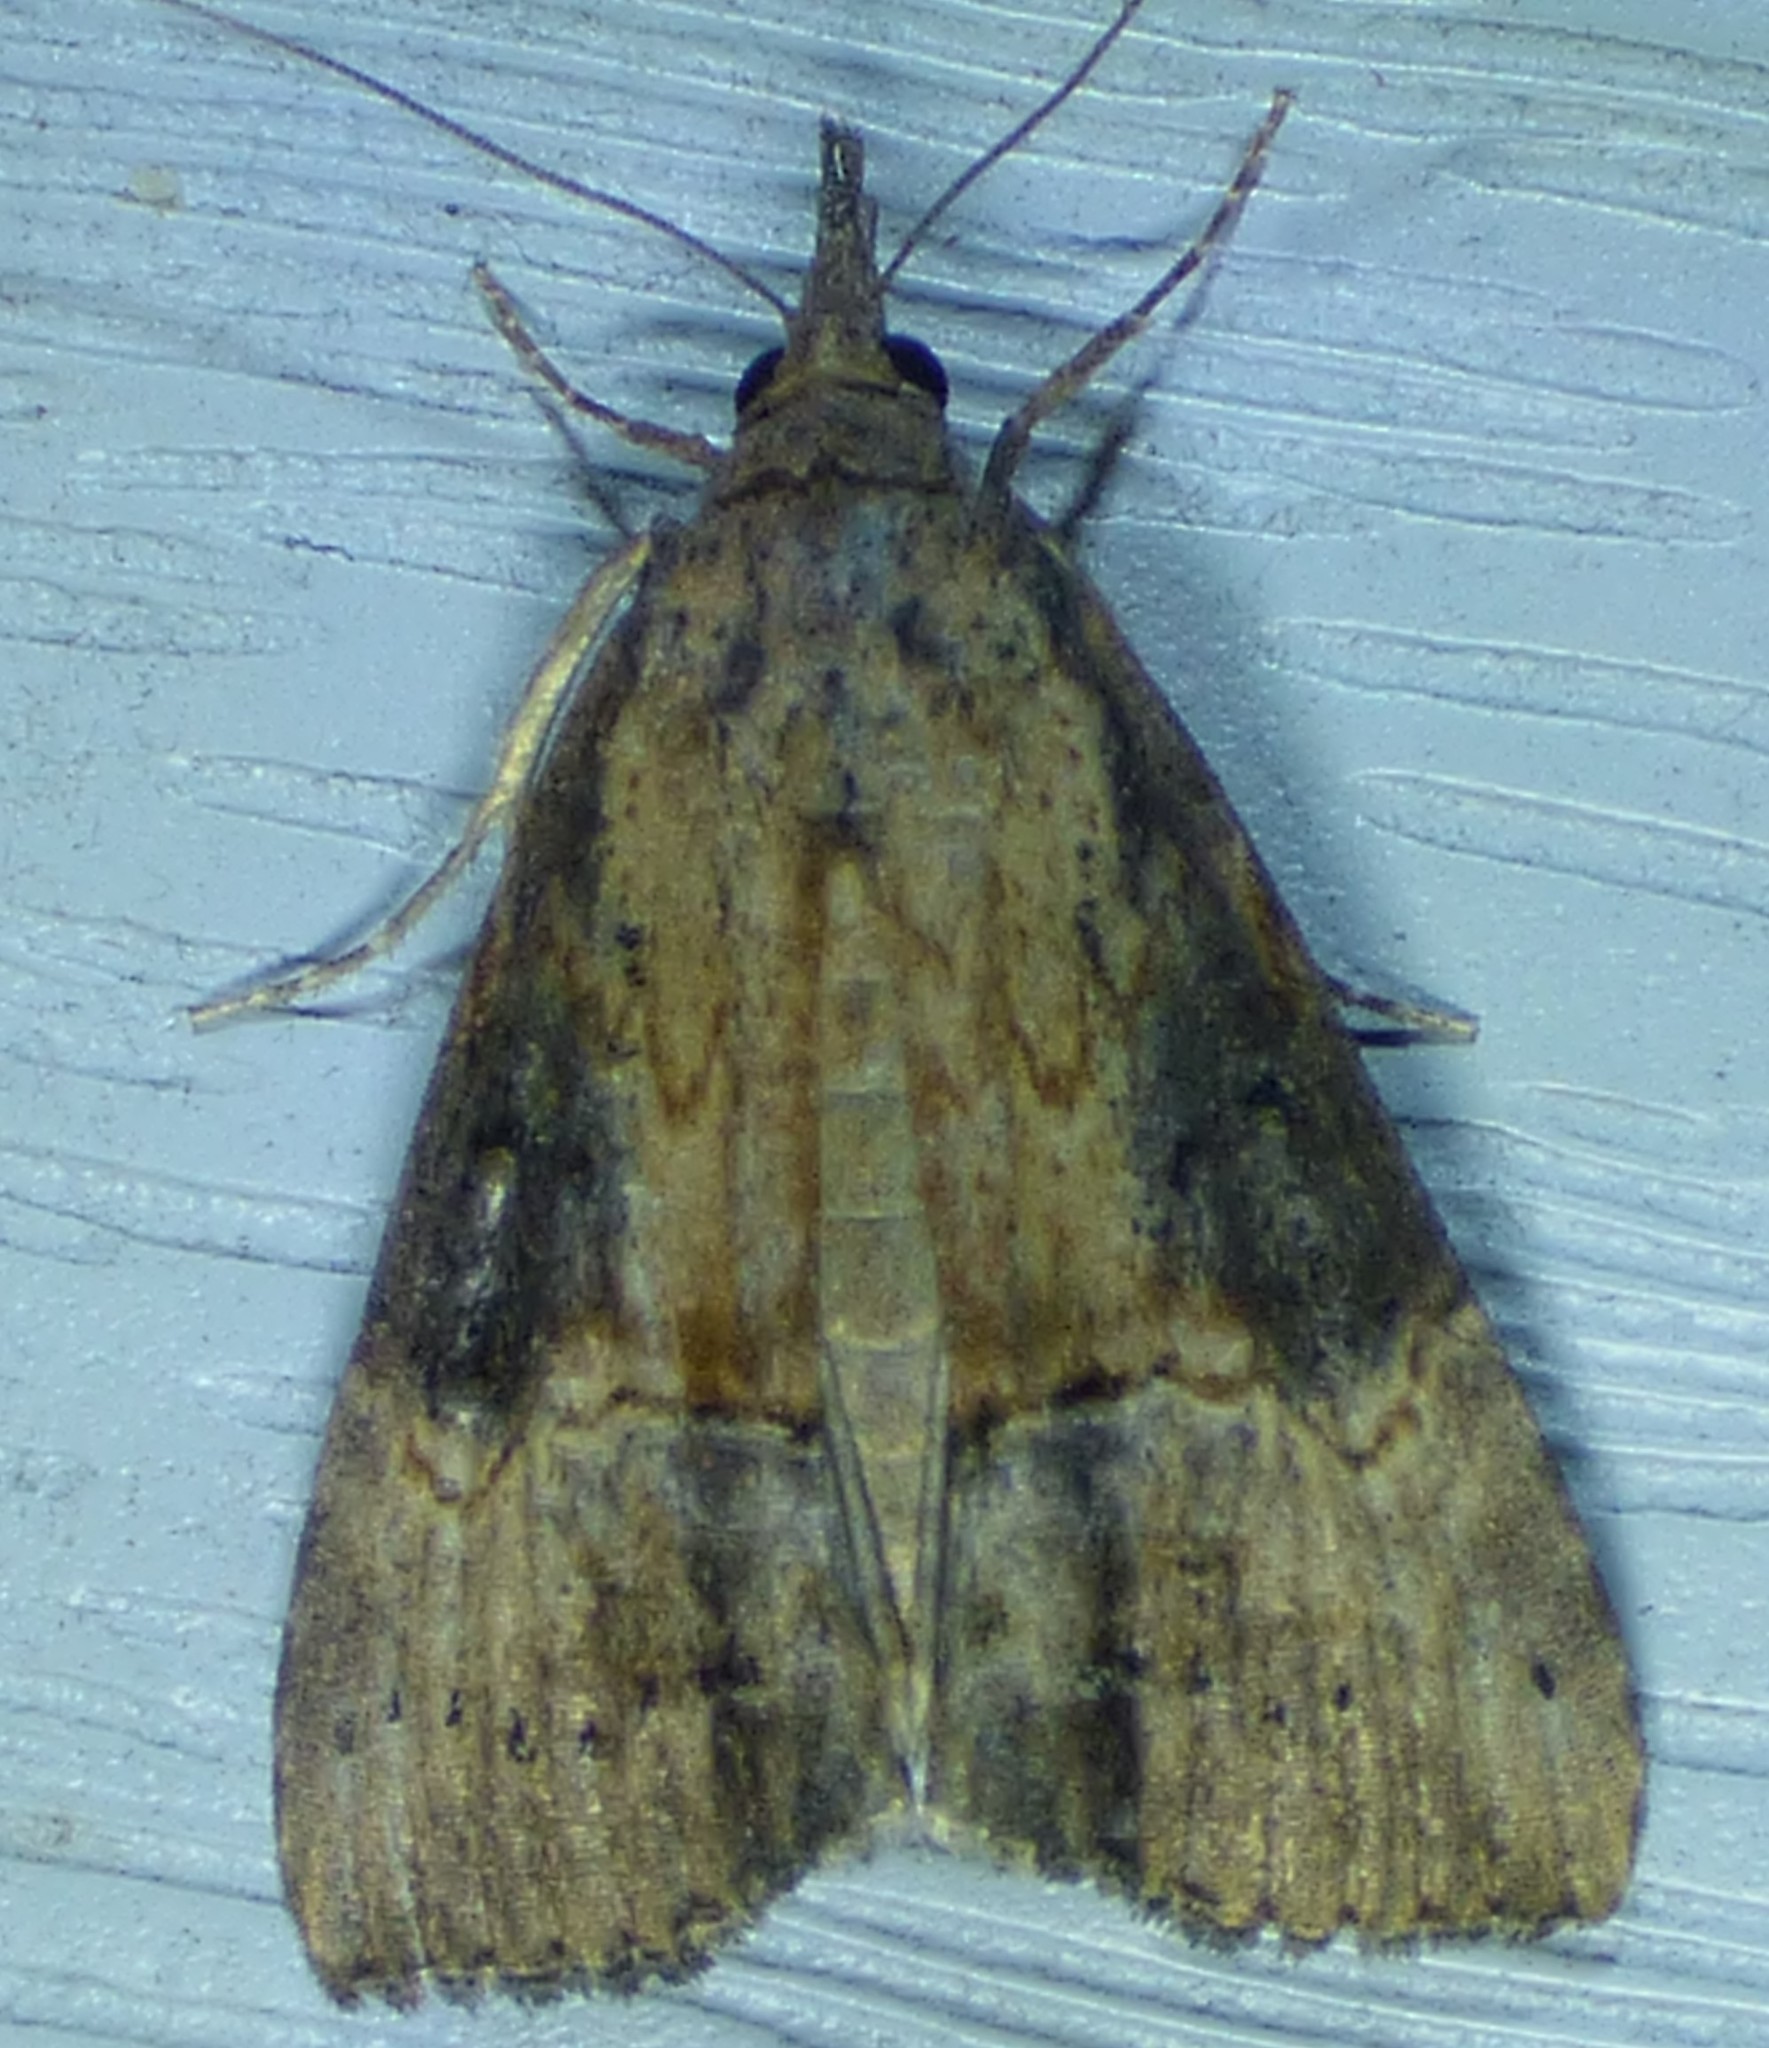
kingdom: Animalia
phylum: Arthropoda
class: Insecta
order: Lepidoptera
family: Erebidae
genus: Hypena
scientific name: Hypena scabra
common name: Green cloverworm
